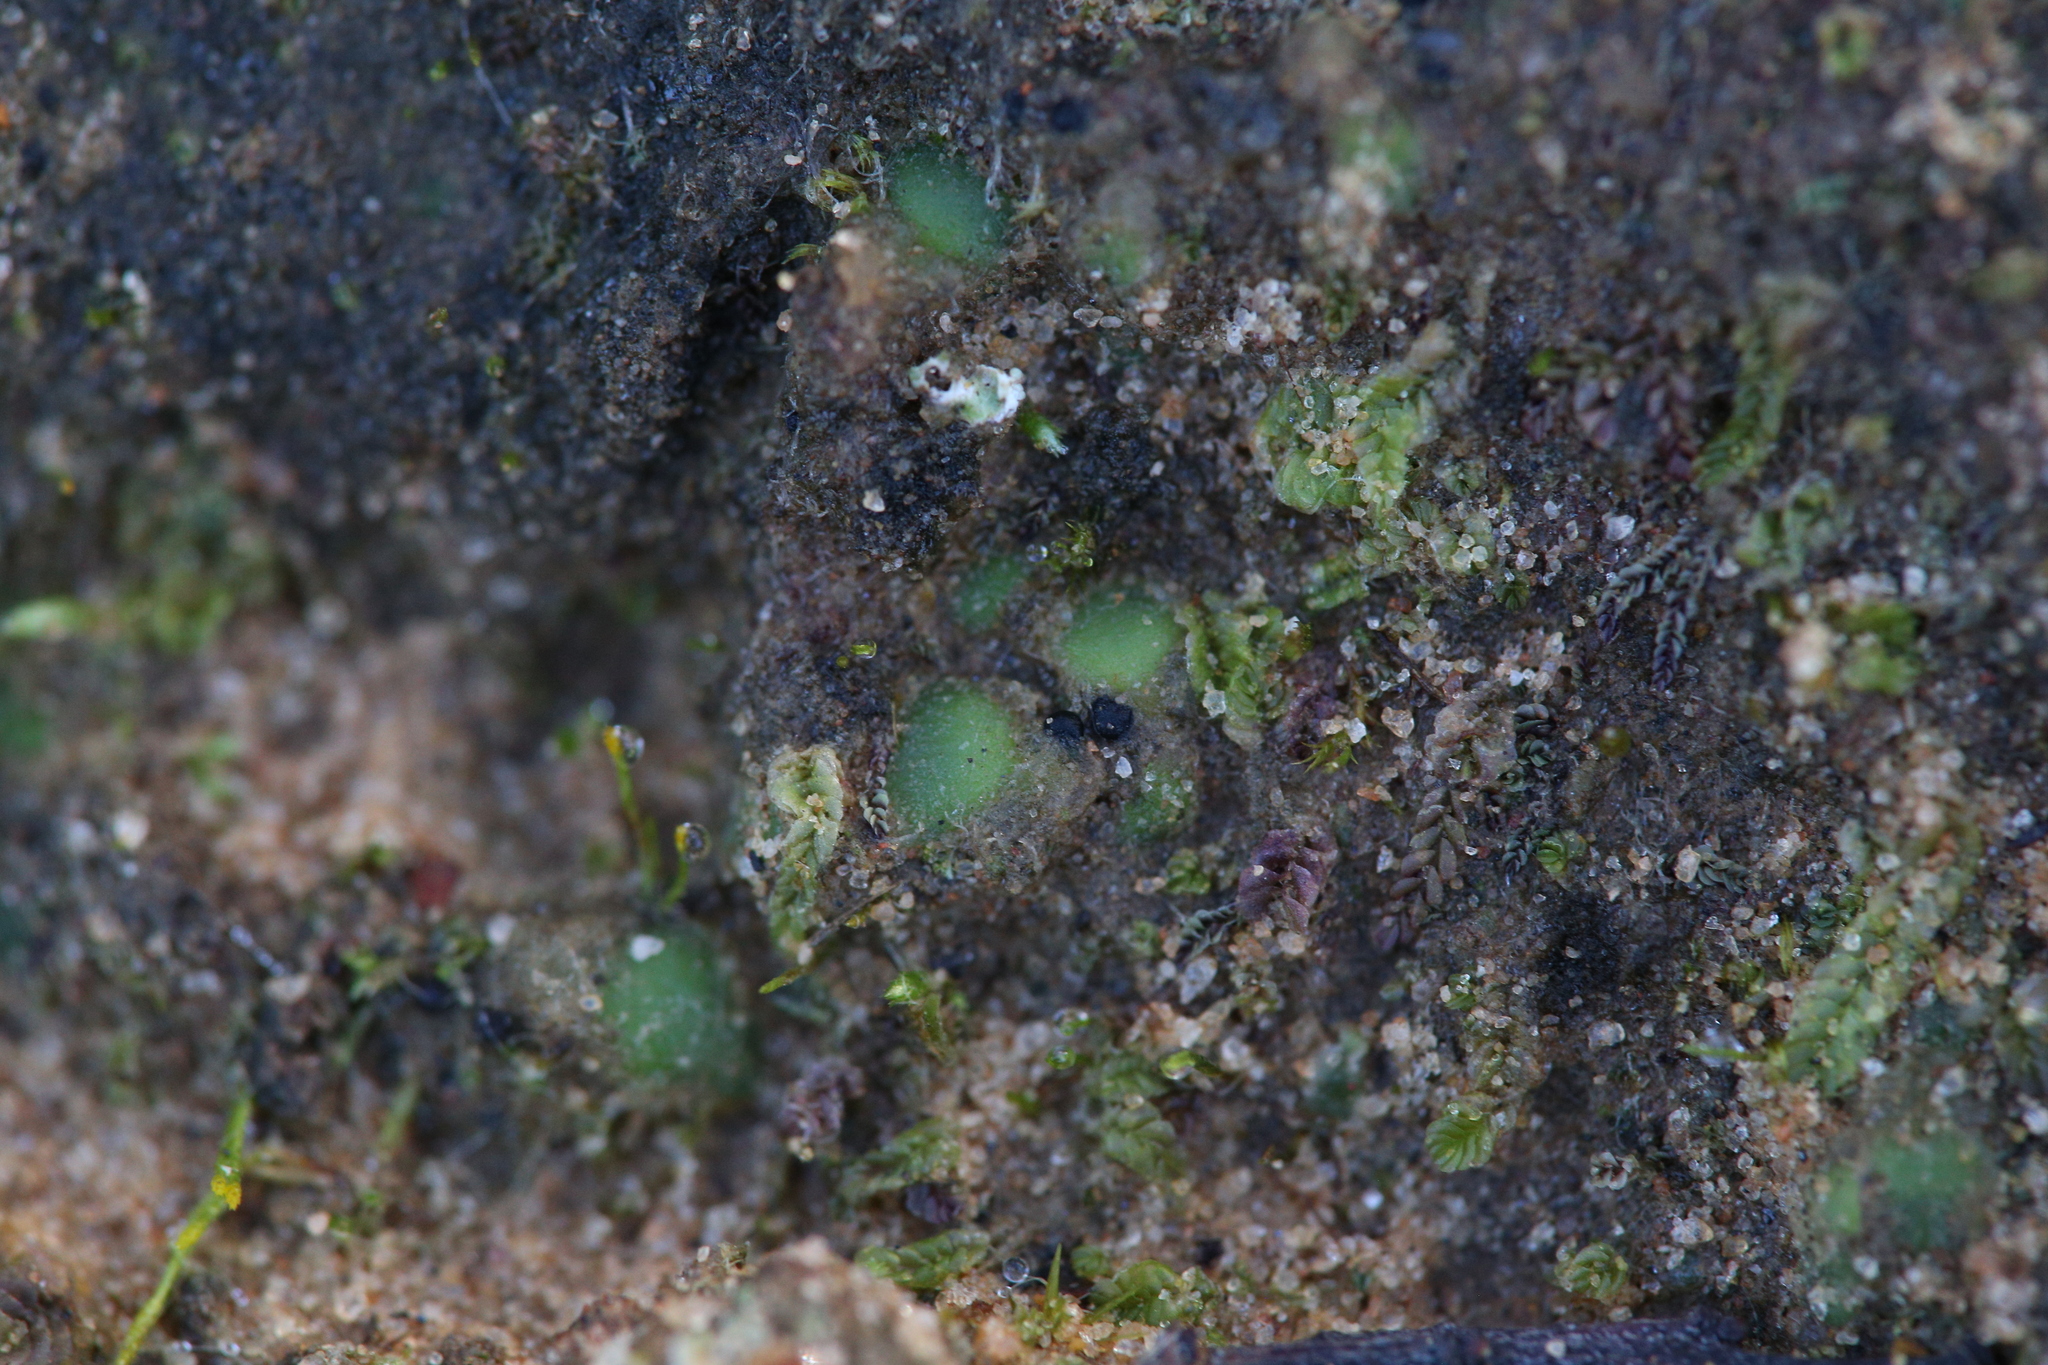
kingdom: Plantae
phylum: Marchantiophyta
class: Jungermanniopsida
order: Jungermanniales
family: Acrobolbaceae
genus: Enigmella
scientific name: Enigmella thallina
